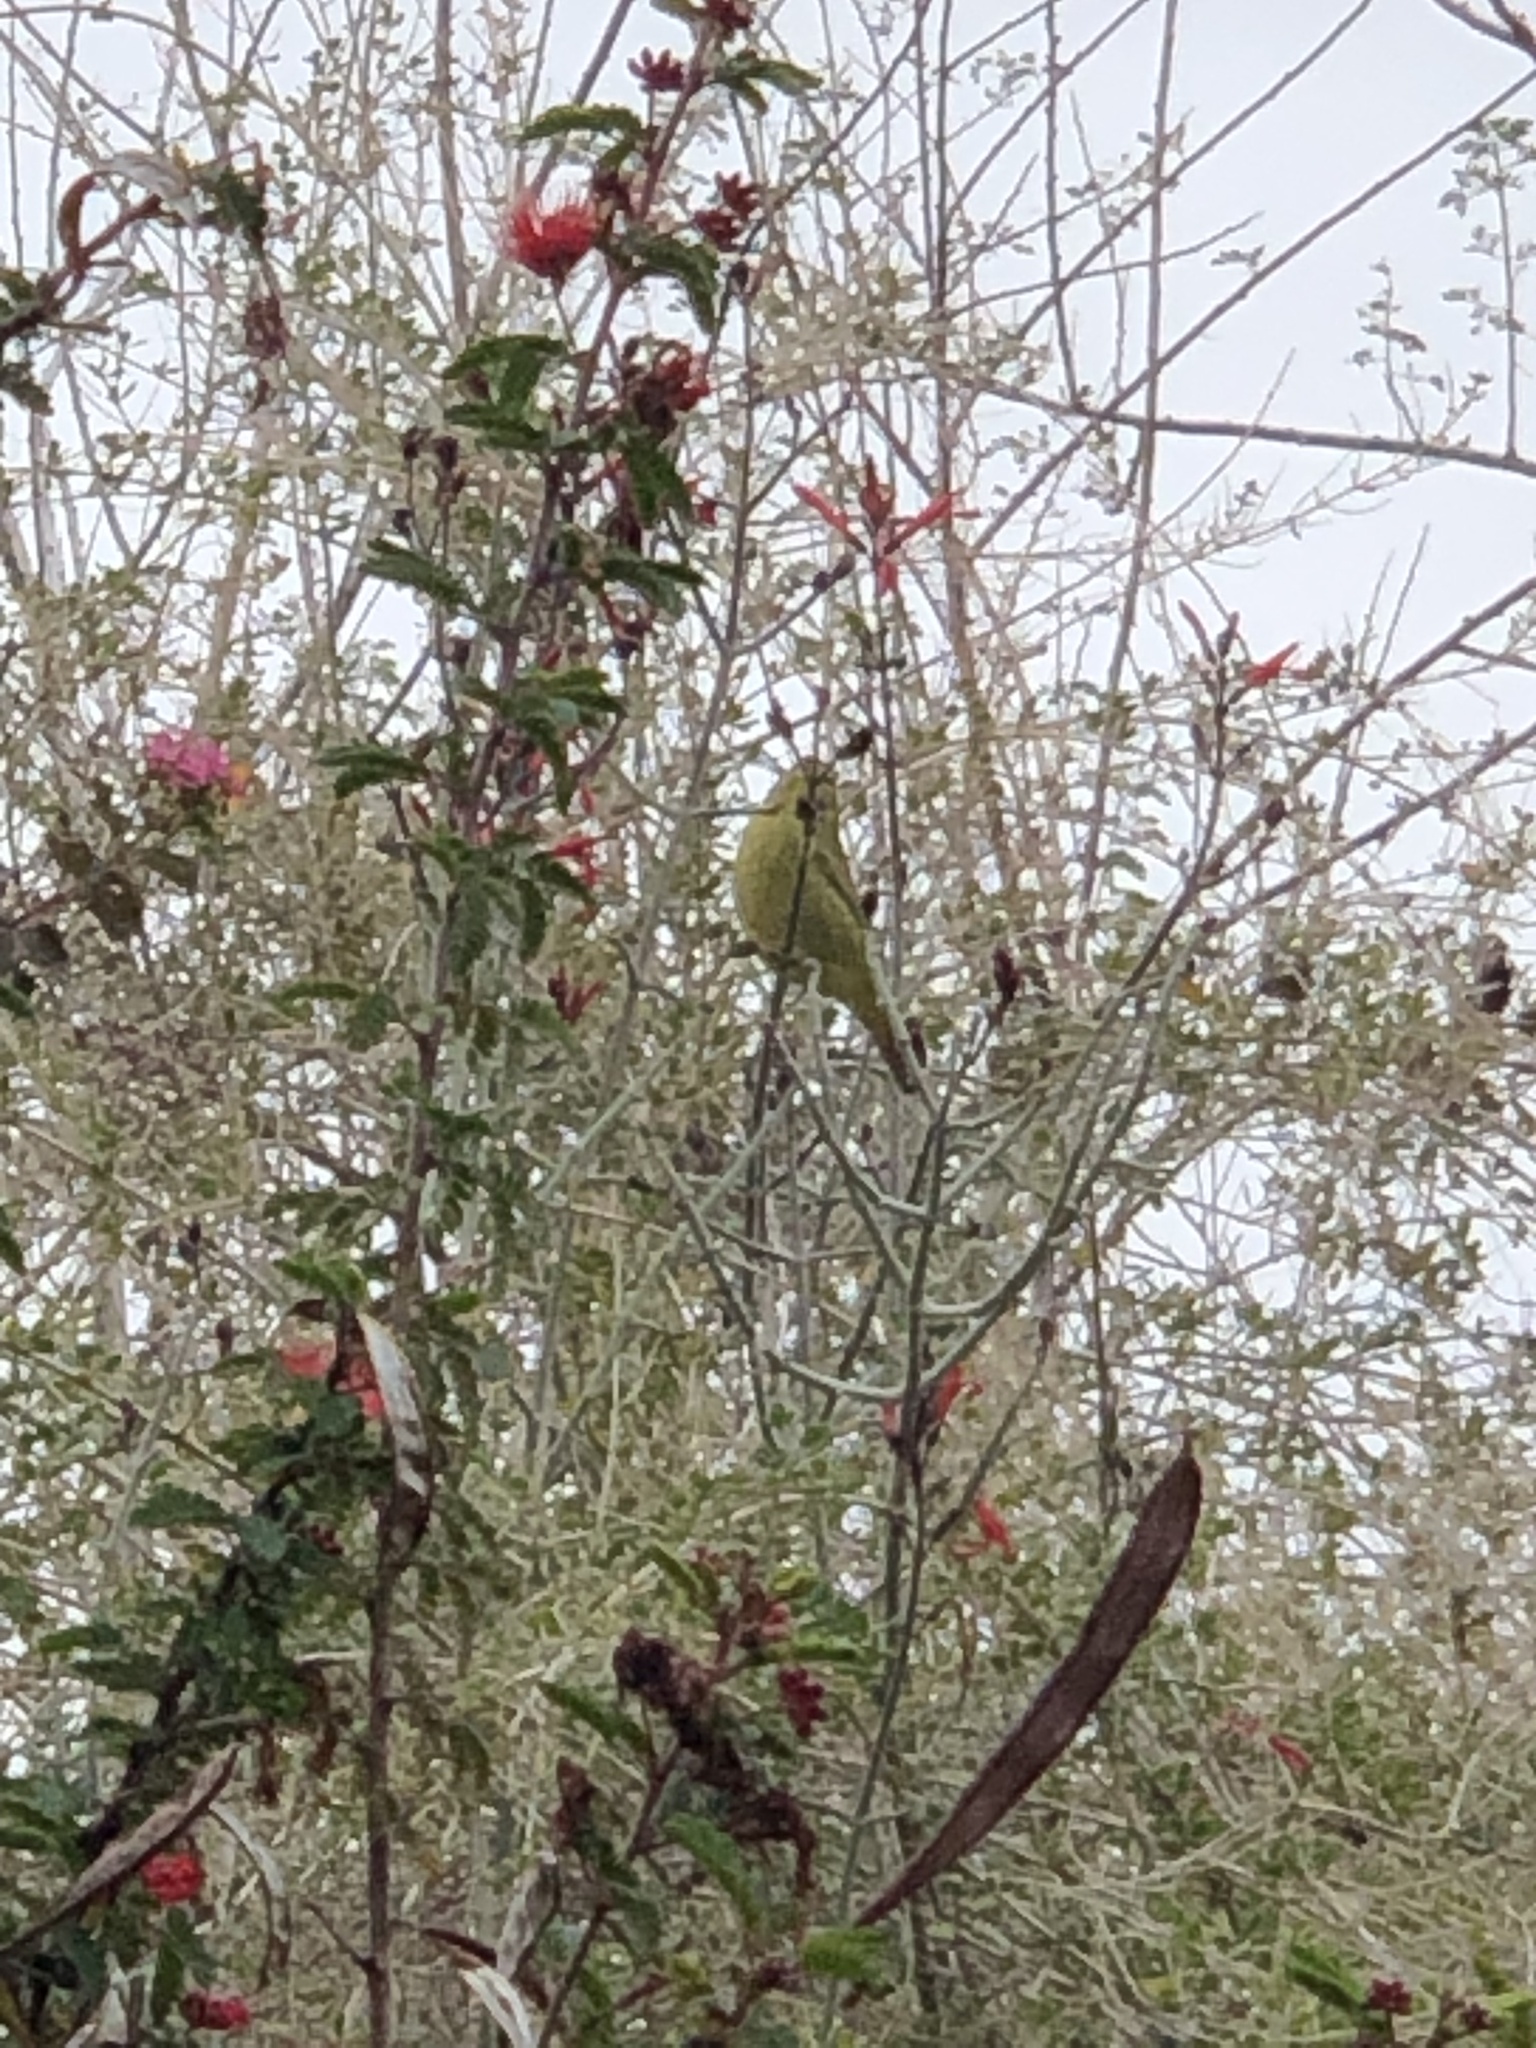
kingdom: Animalia
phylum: Chordata
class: Aves
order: Passeriformes
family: Parulidae
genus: Leiothlypis
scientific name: Leiothlypis celata
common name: Orange-crowned warbler
